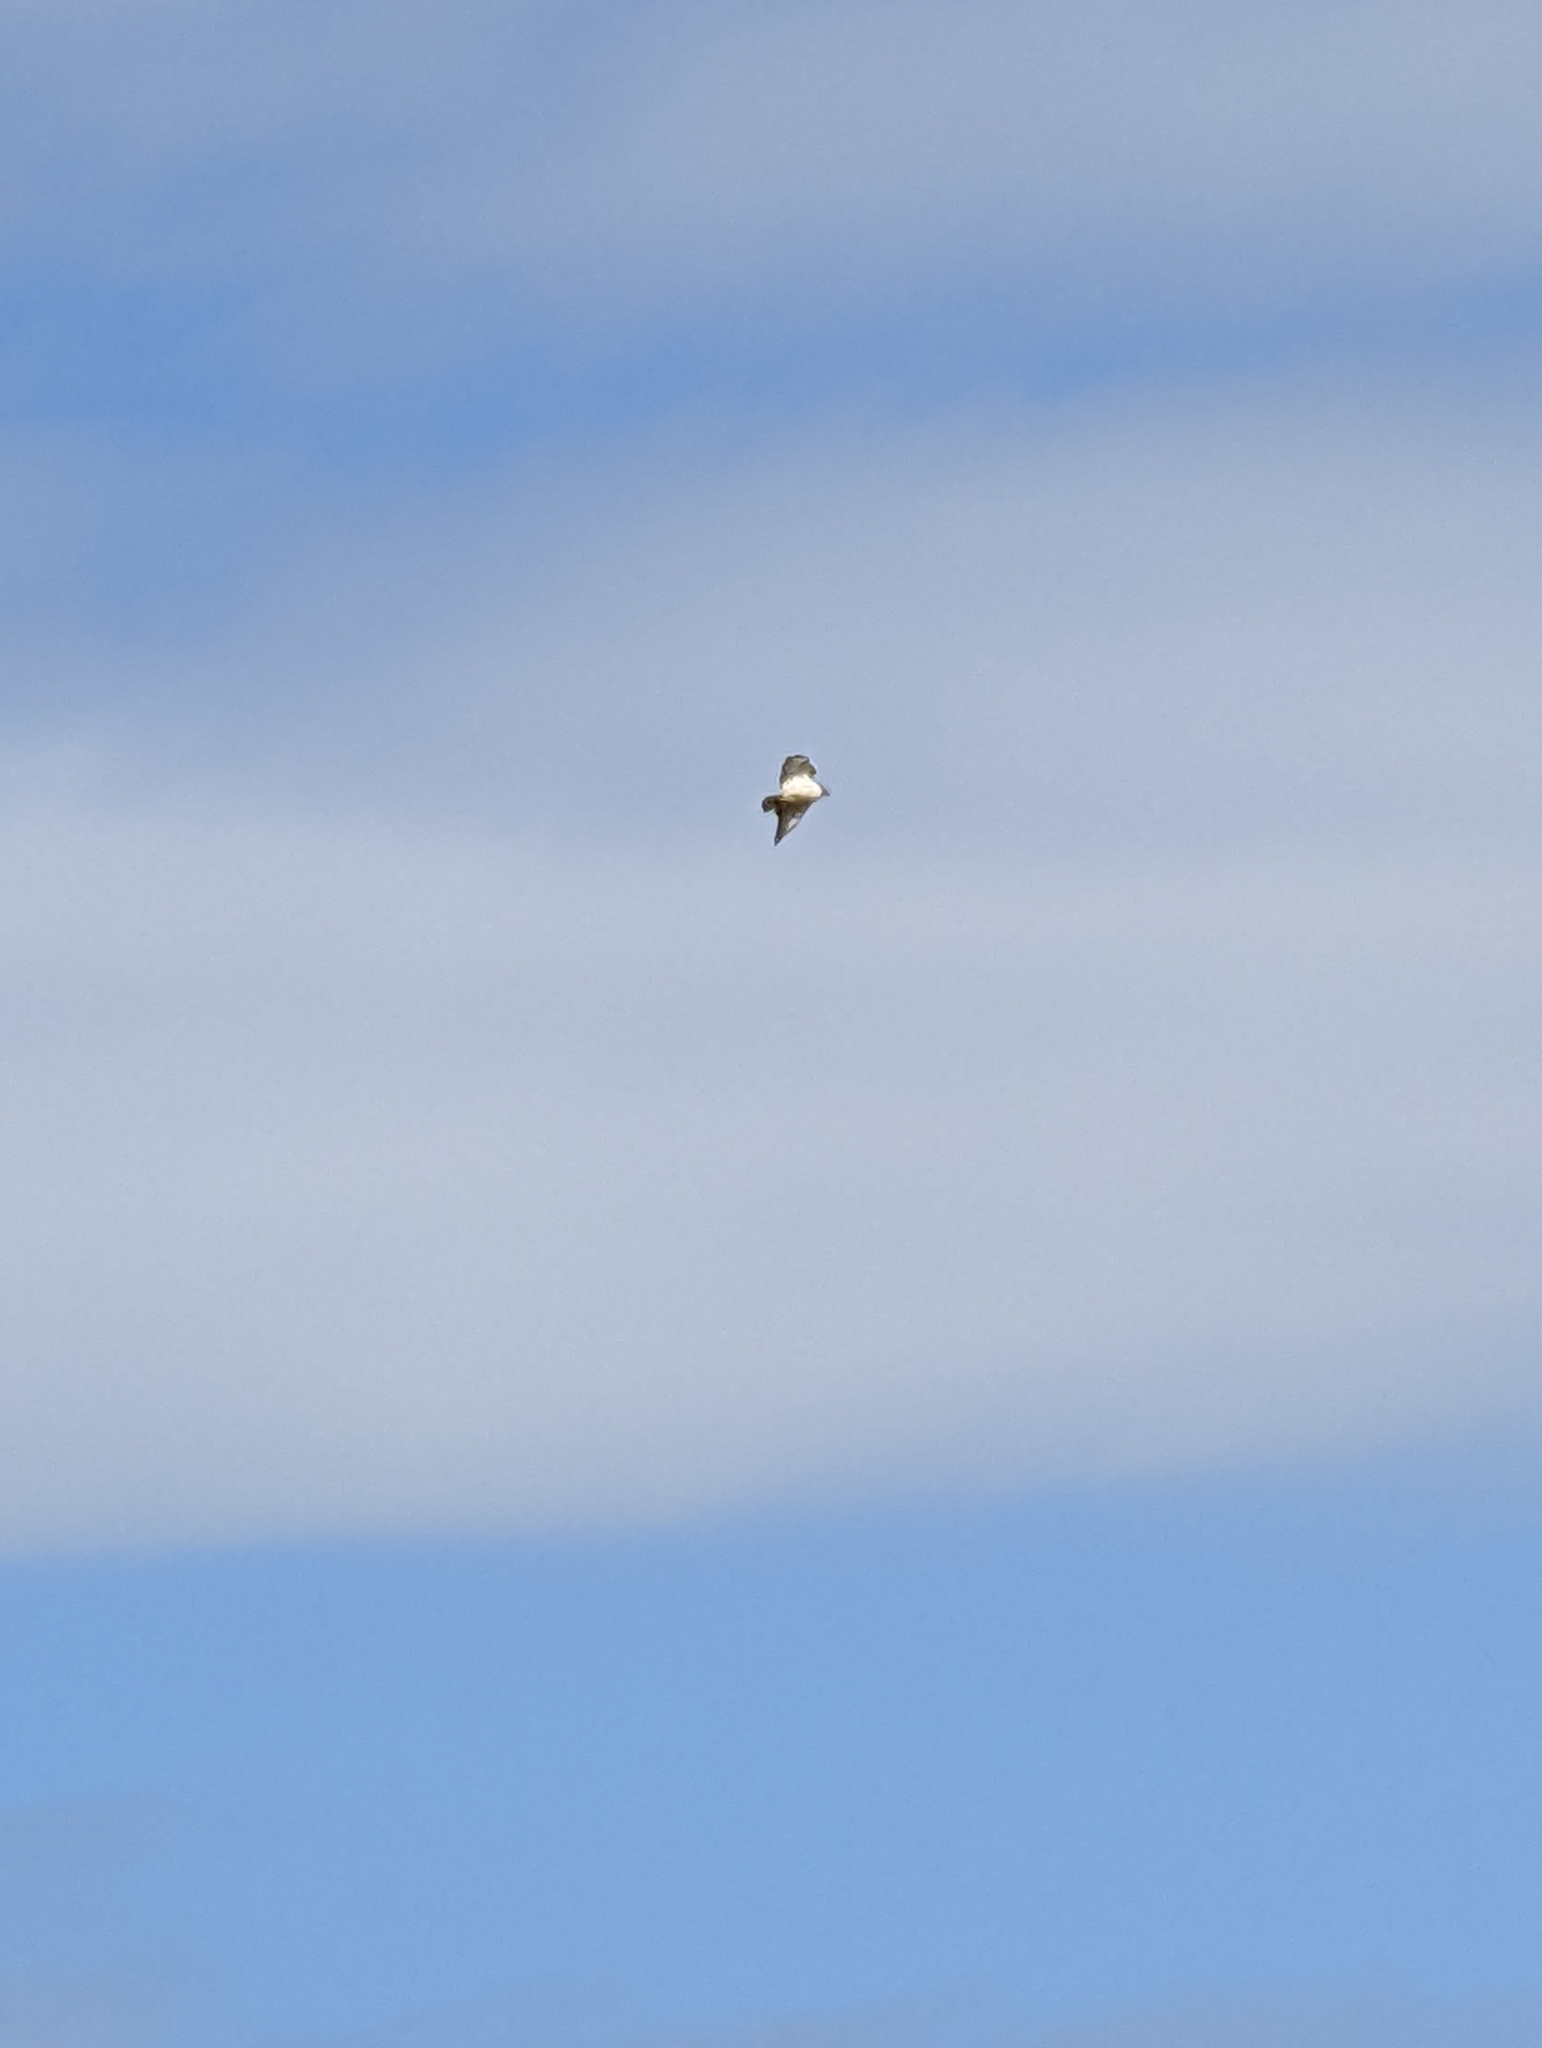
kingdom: Animalia
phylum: Chordata
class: Aves
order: Accipitriformes
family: Accipitridae
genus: Buteo
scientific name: Buteo jamaicensis
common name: Red-tailed hawk
